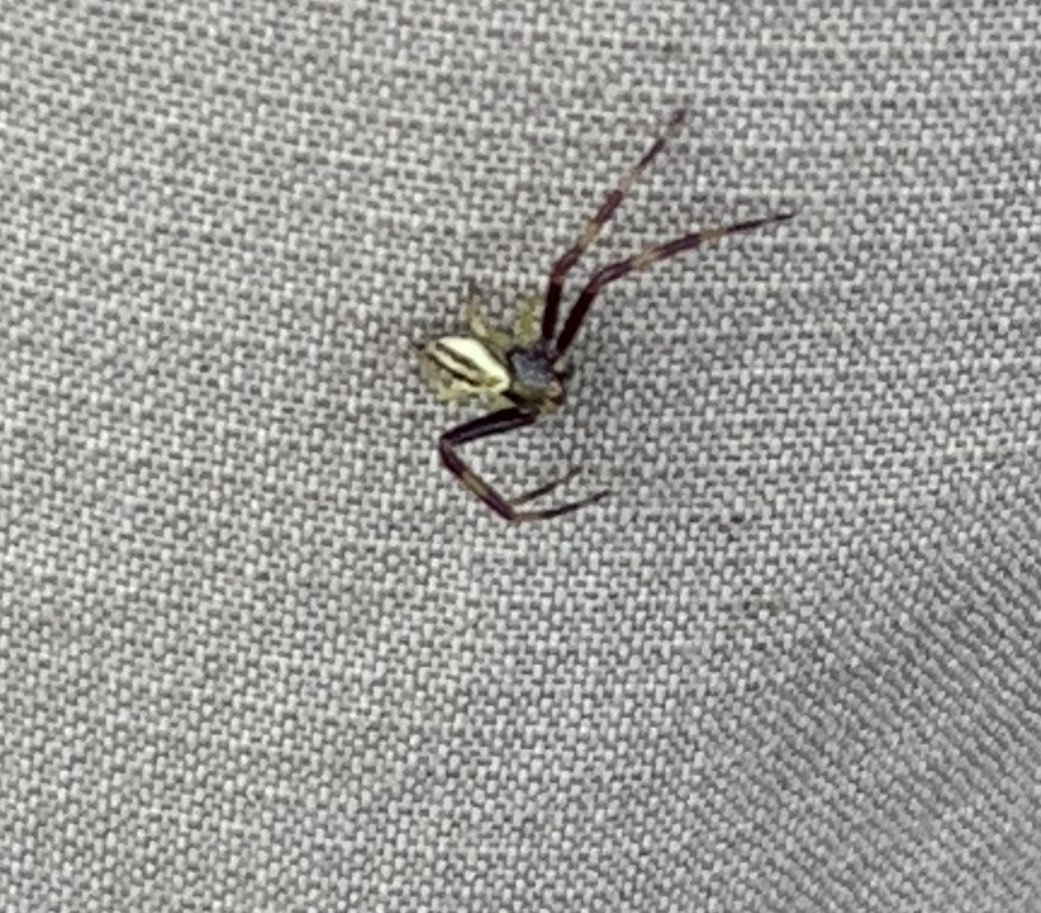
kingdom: Animalia
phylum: Arthropoda
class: Arachnida
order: Araneae
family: Thomisidae
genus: Misumena
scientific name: Misumena vatia
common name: Goldenrod crab spider
